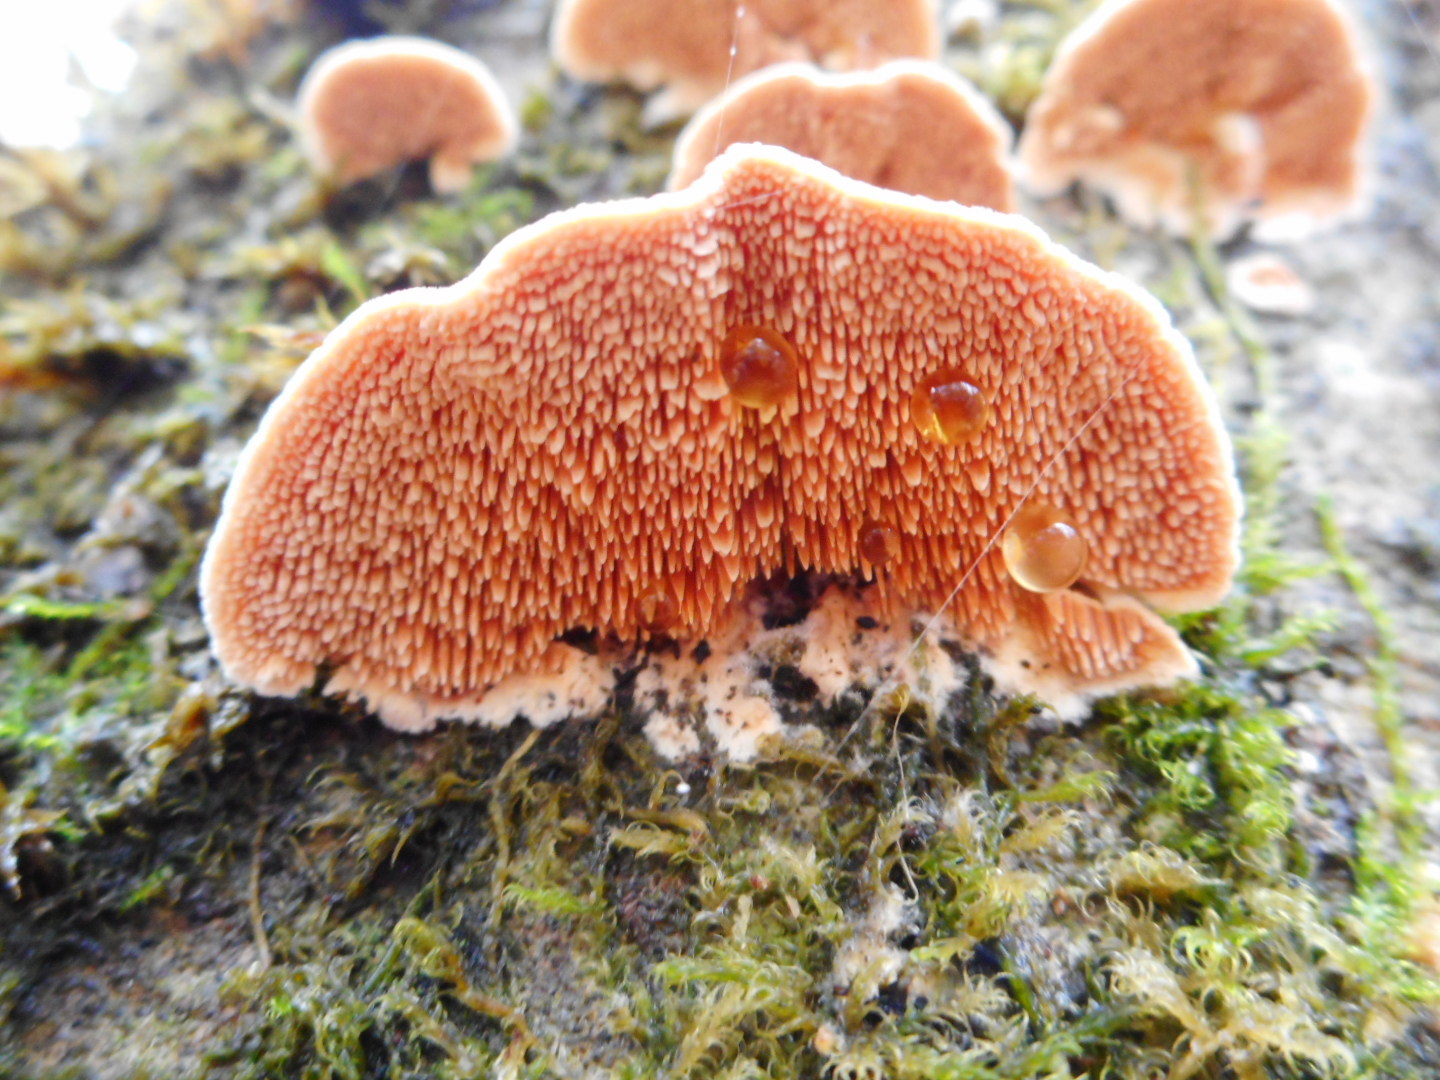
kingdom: Fungi
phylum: Basidiomycota
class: Agaricomycetes
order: Polyporales
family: Steccherinaceae
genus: Steccherinum
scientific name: Steccherinum bourdotii
